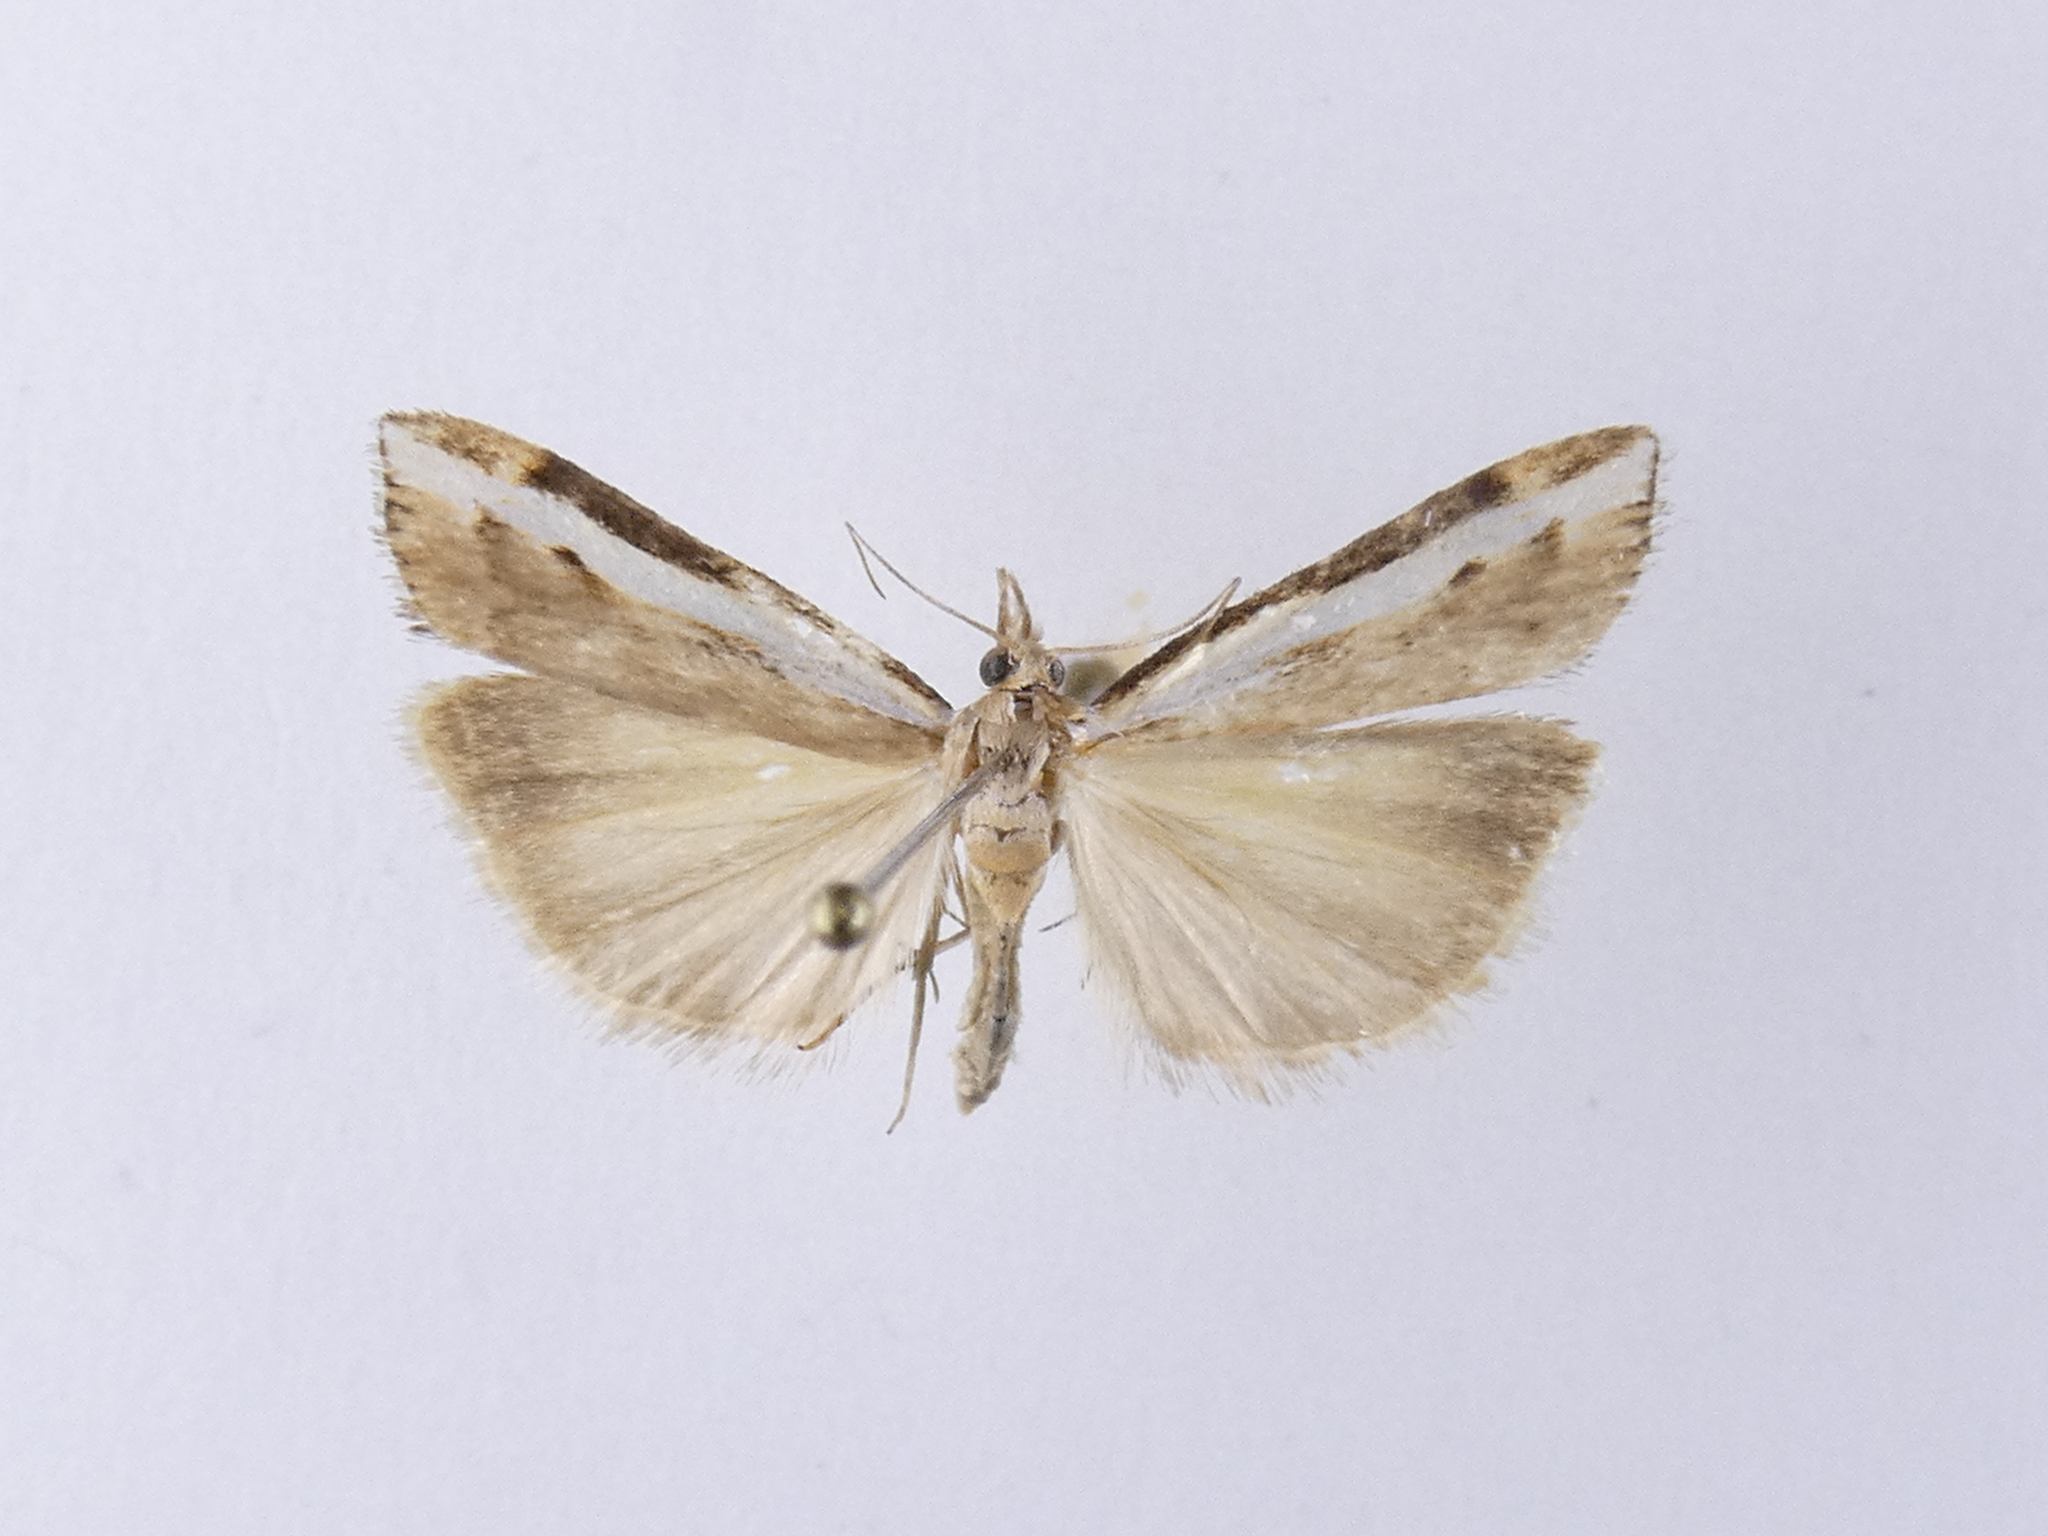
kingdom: Animalia
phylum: Arthropoda
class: Insecta
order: Lepidoptera
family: Crambidae
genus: Orocrambus
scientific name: Orocrambus flexuosellus
